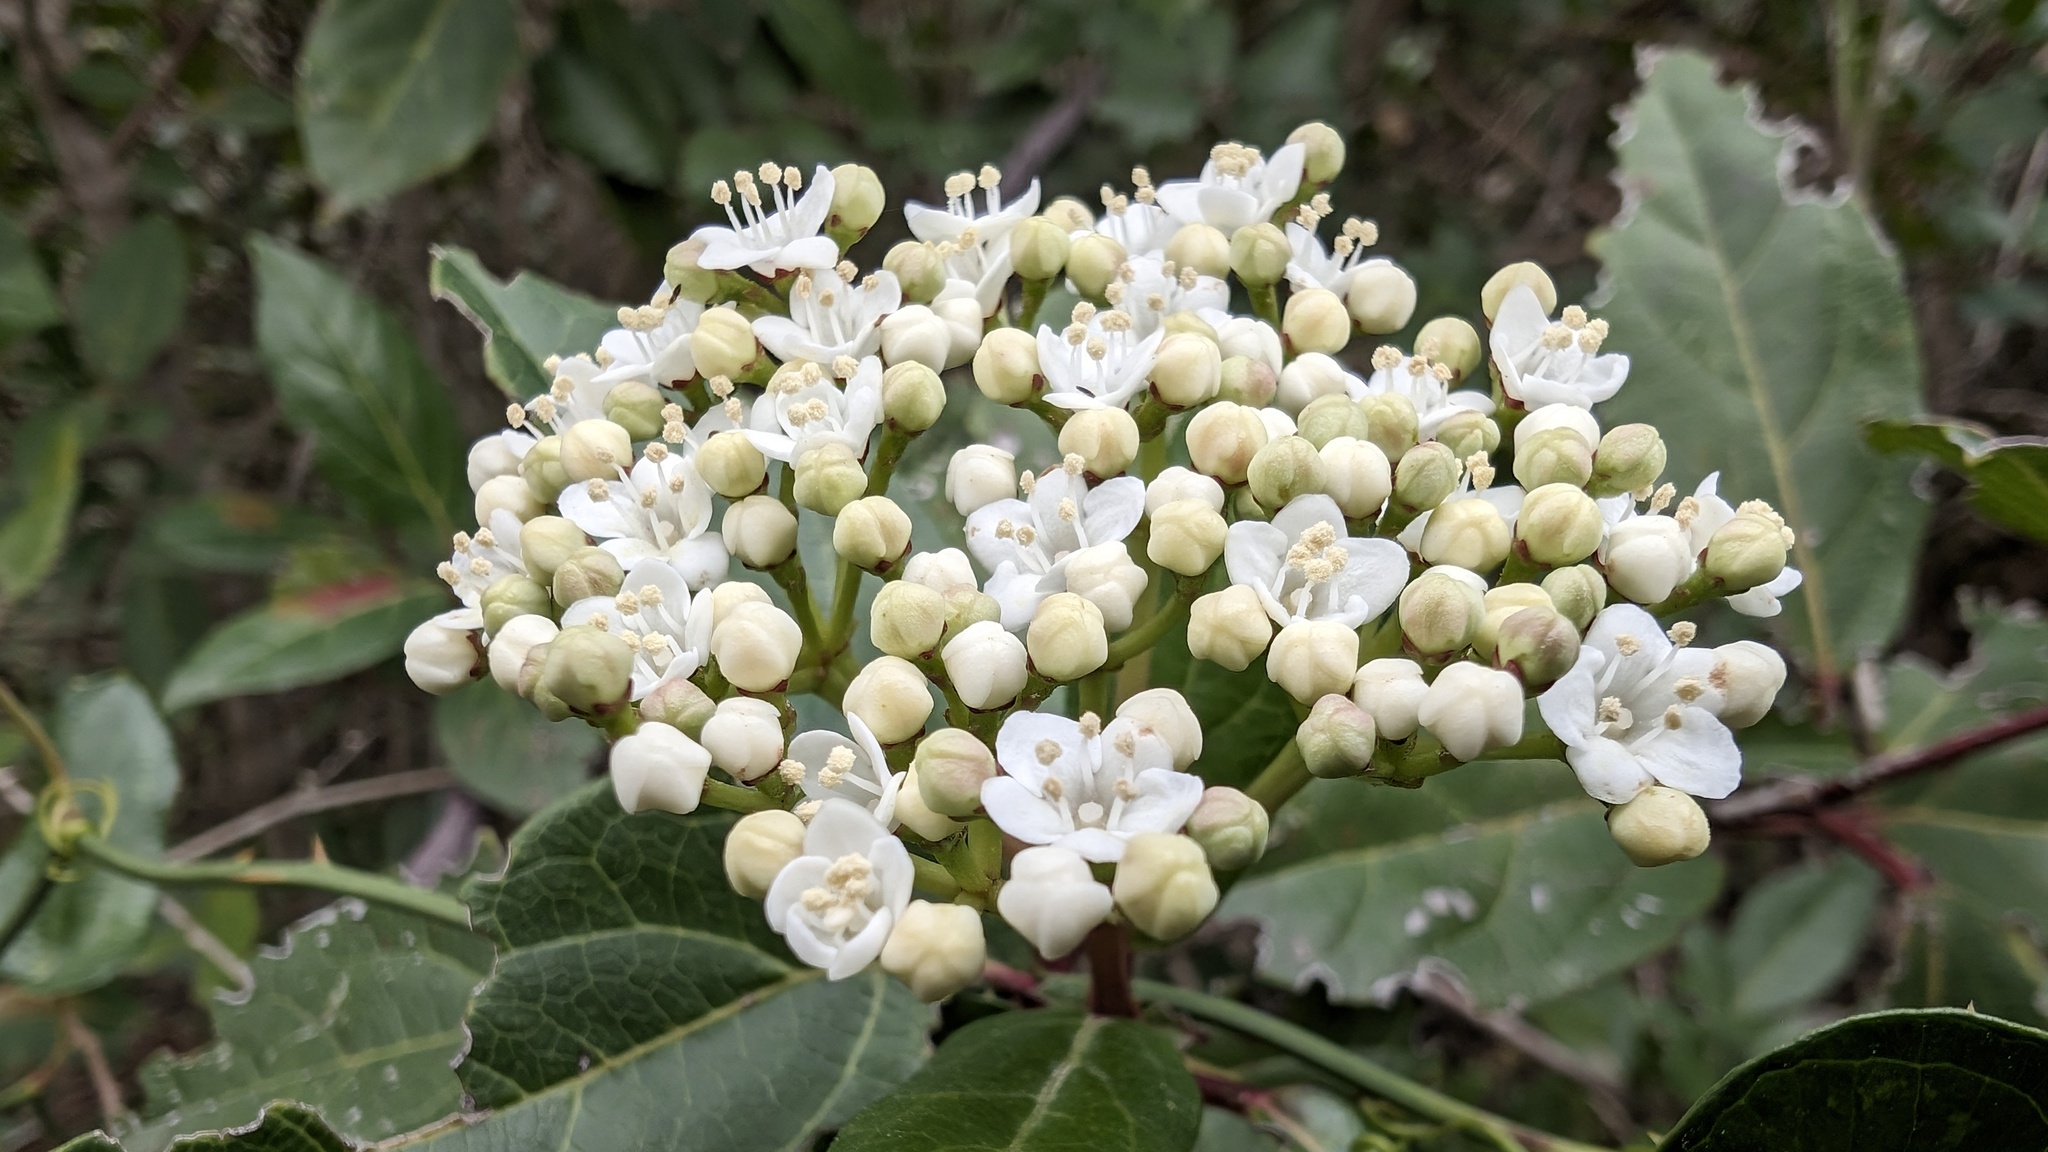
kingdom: Plantae
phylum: Tracheophyta
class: Magnoliopsida
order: Dipsacales
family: Viburnaceae
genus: Viburnum
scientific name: Viburnum tinus
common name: Laurustinus
